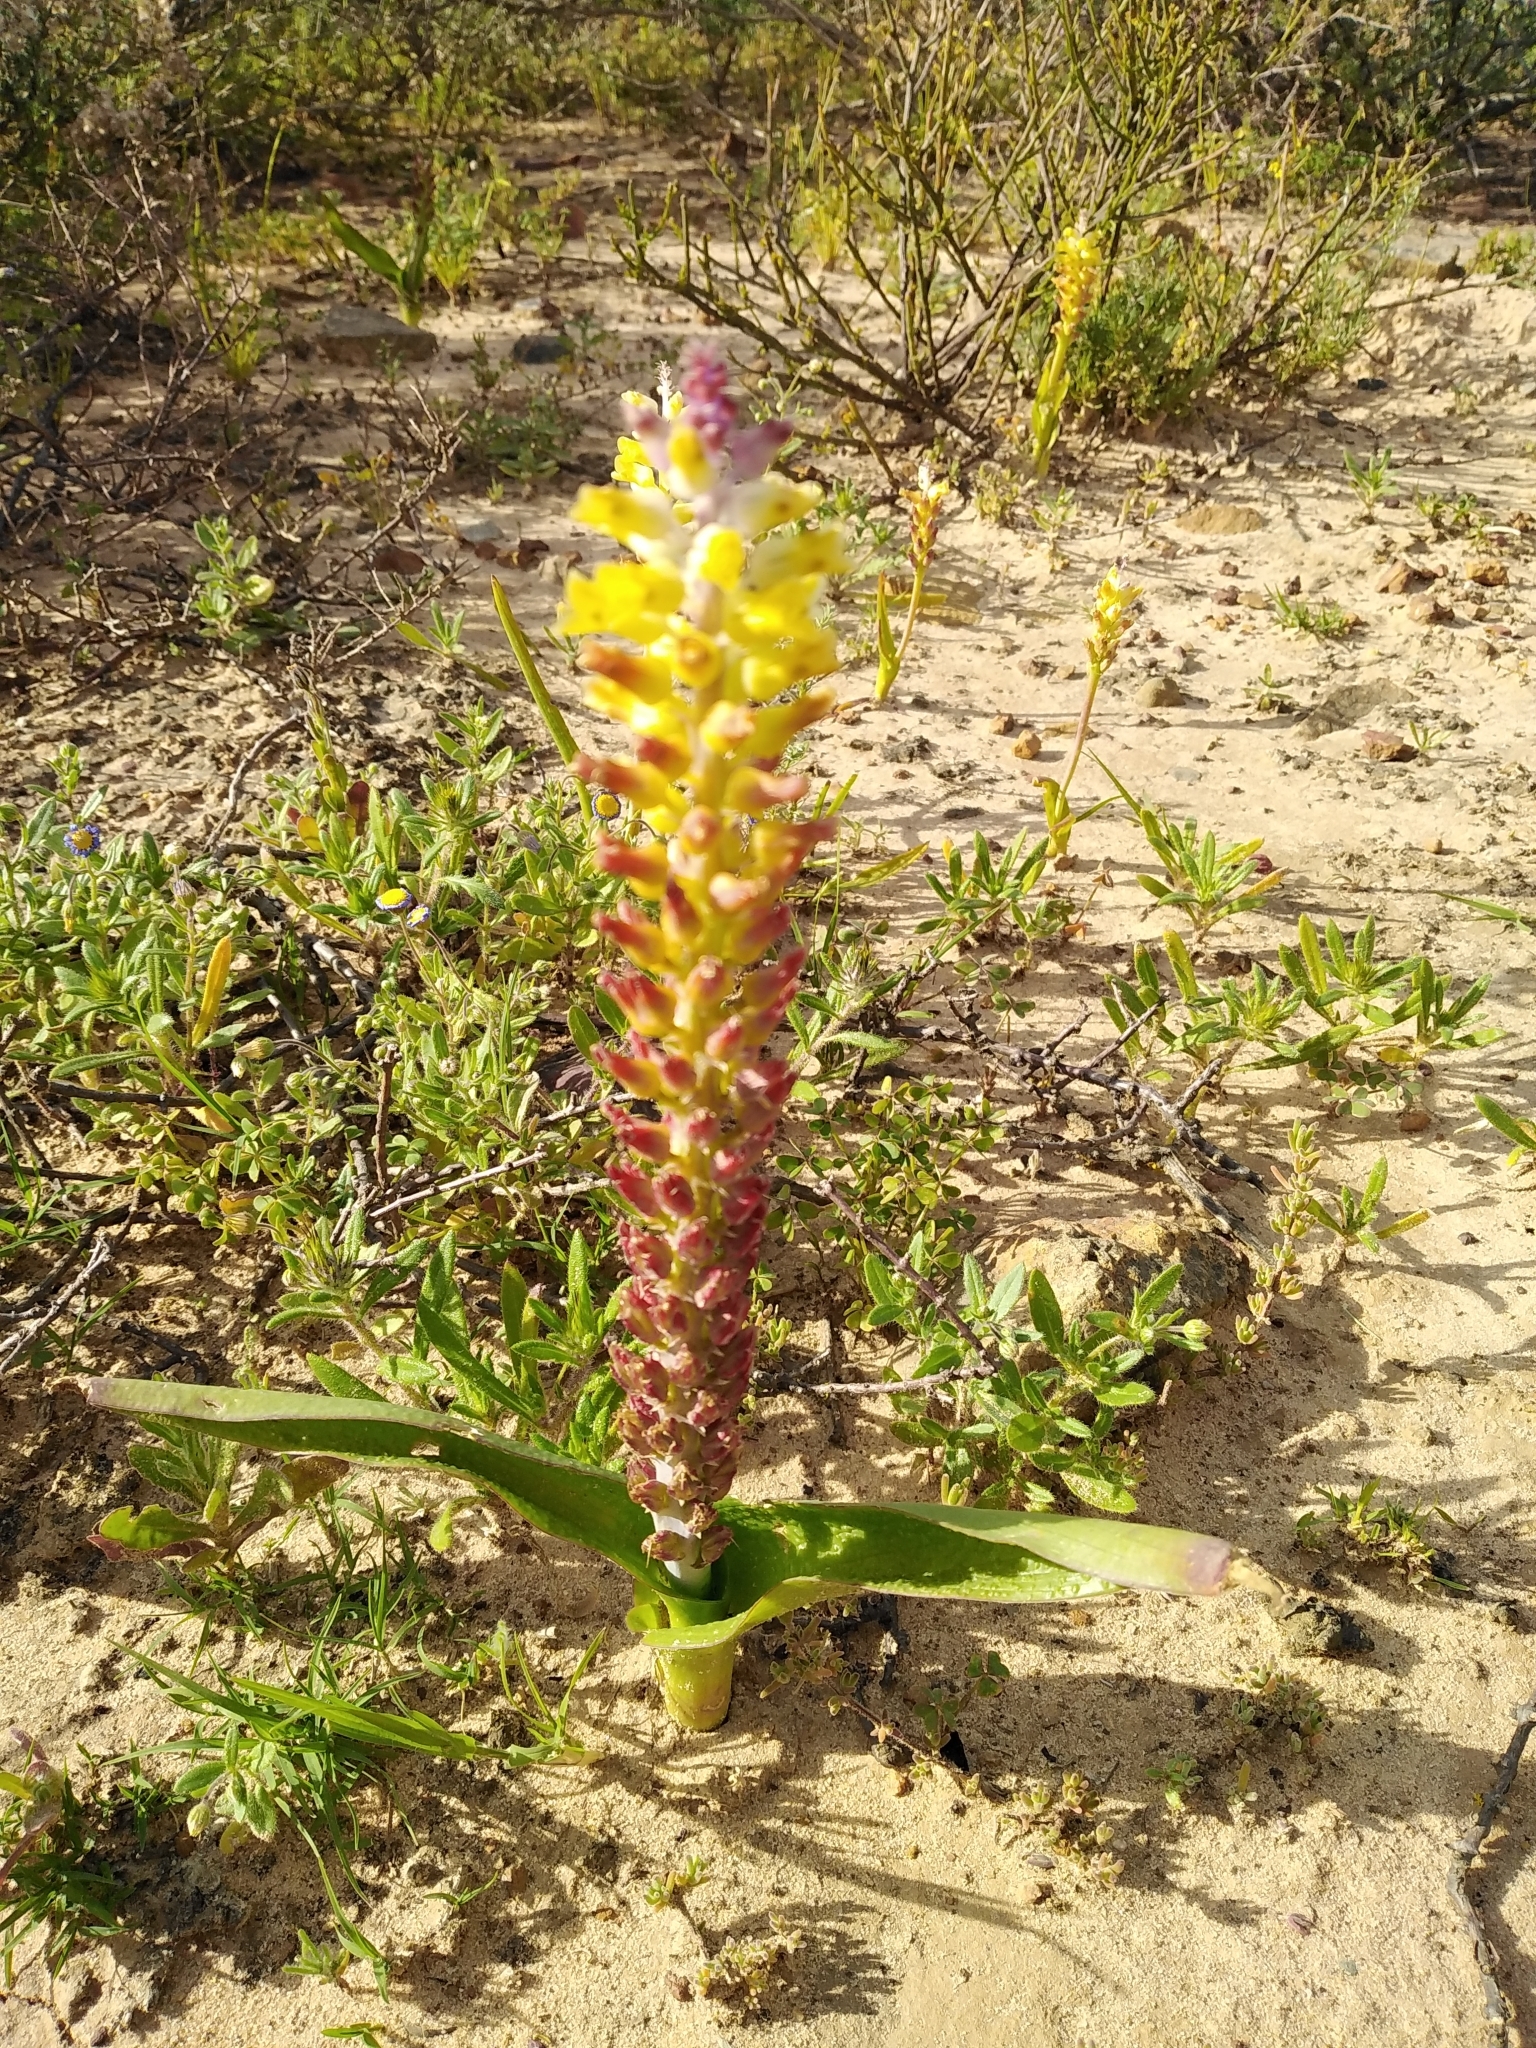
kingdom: Plantae
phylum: Tracheophyta
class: Liliopsida
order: Asparagales
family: Asparagaceae
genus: Lachenalia
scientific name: Lachenalia pallida
